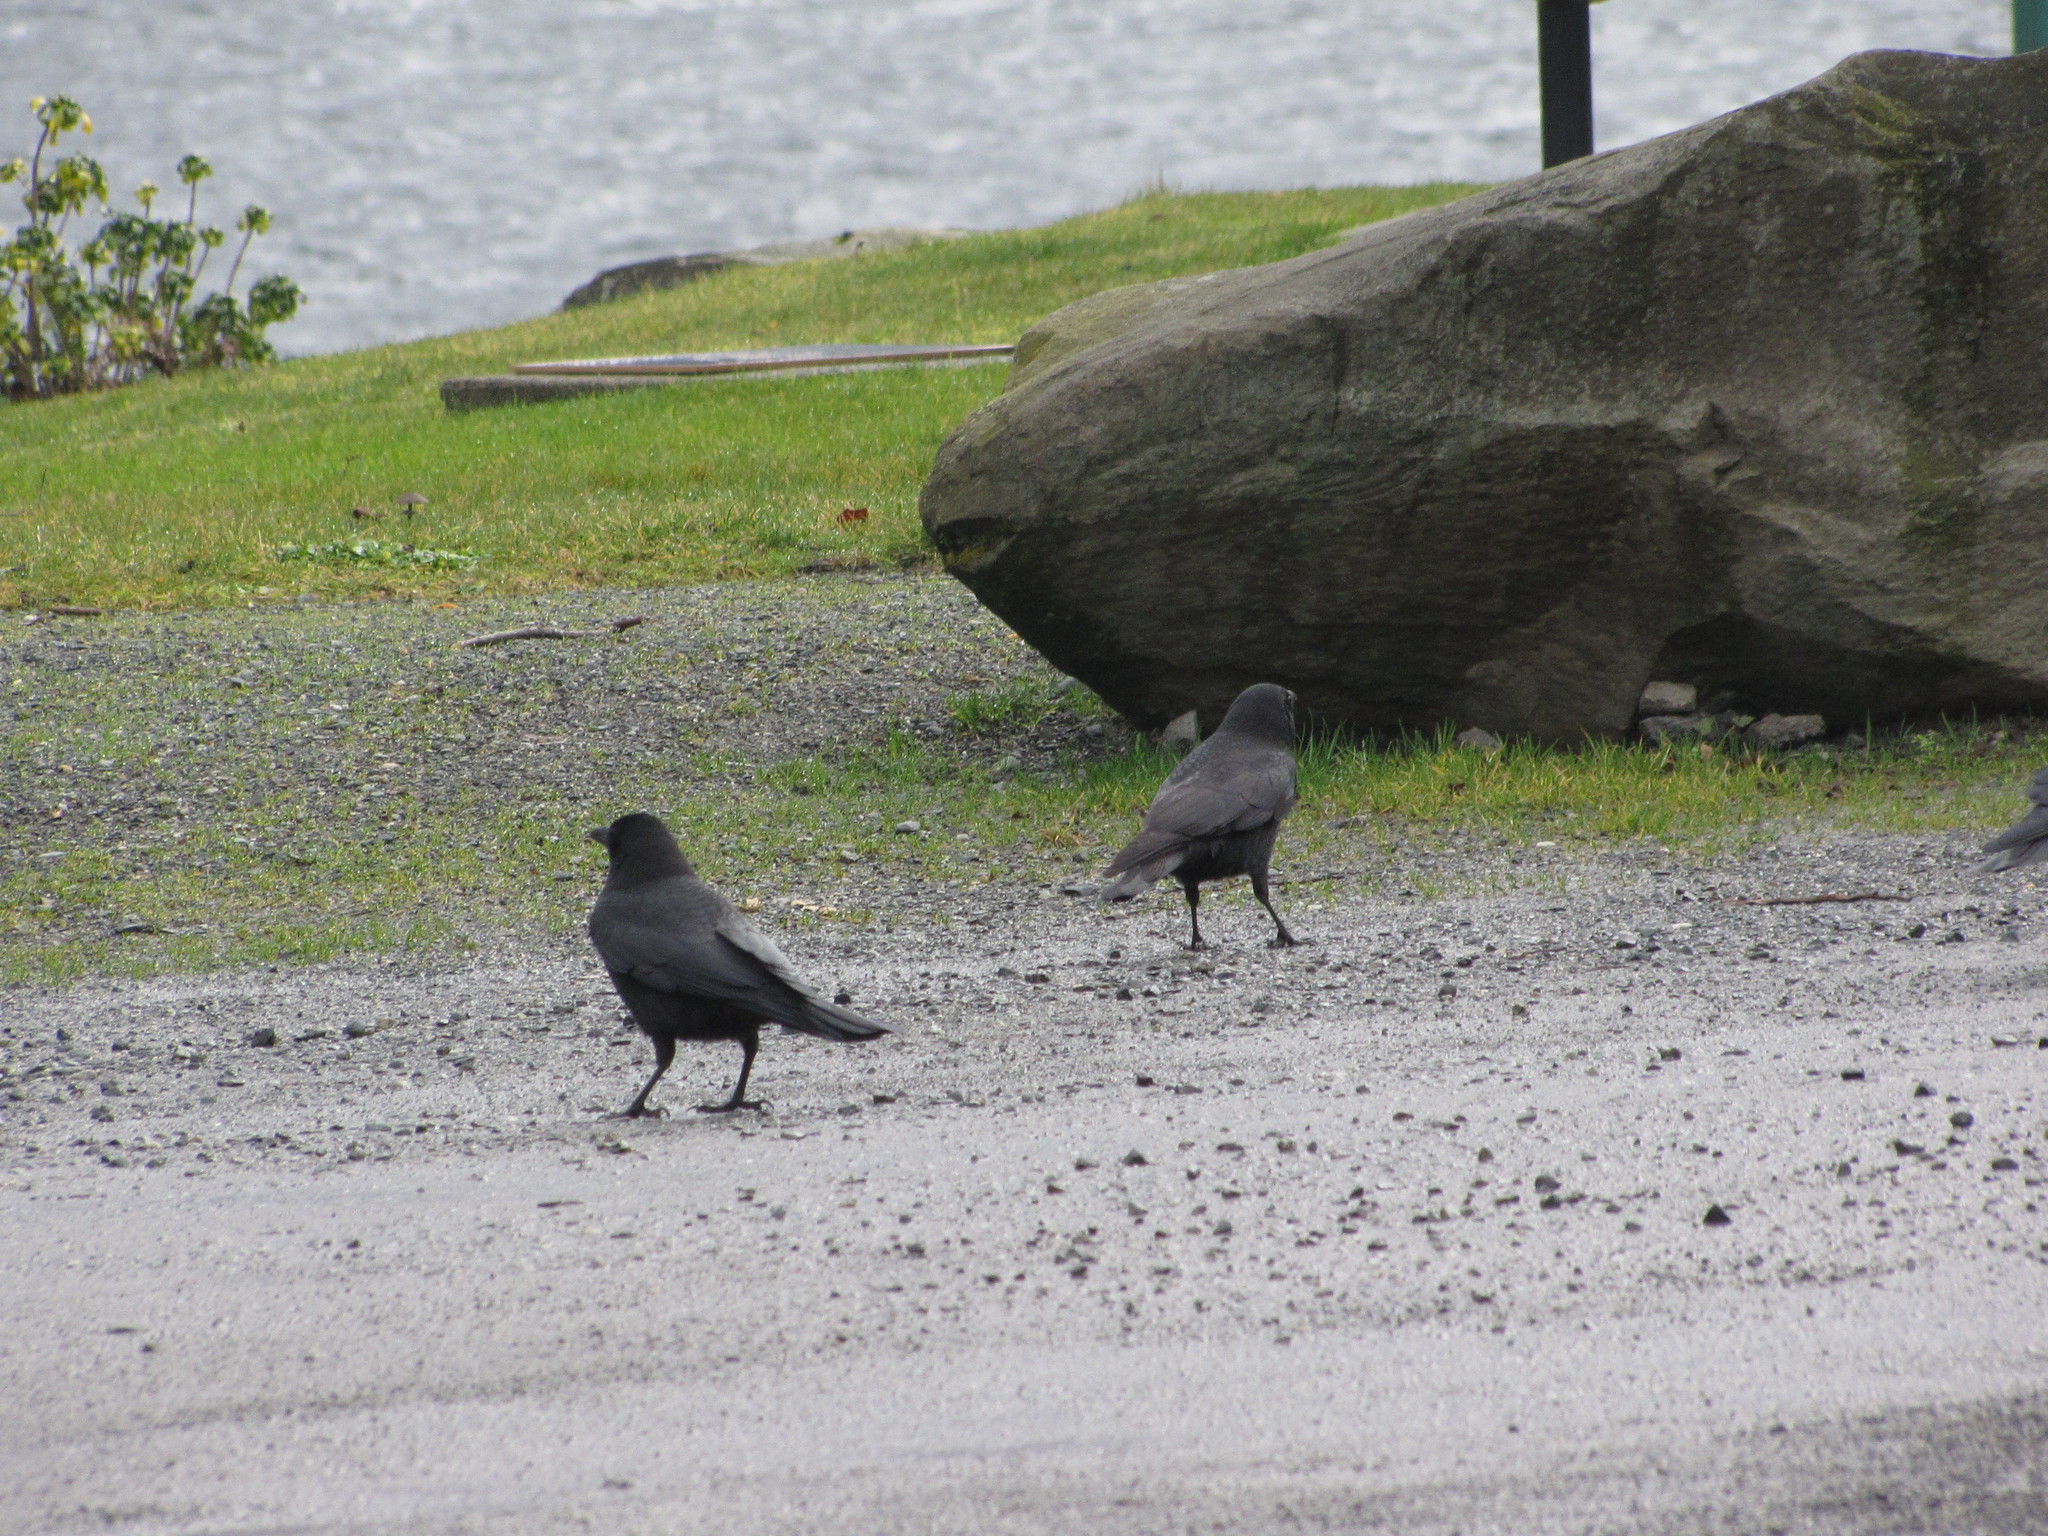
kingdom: Animalia
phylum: Chordata
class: Aves
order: Passeriformes
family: Corvidae
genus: Corvus
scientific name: Corvus brachyrhynchos
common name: American crow
